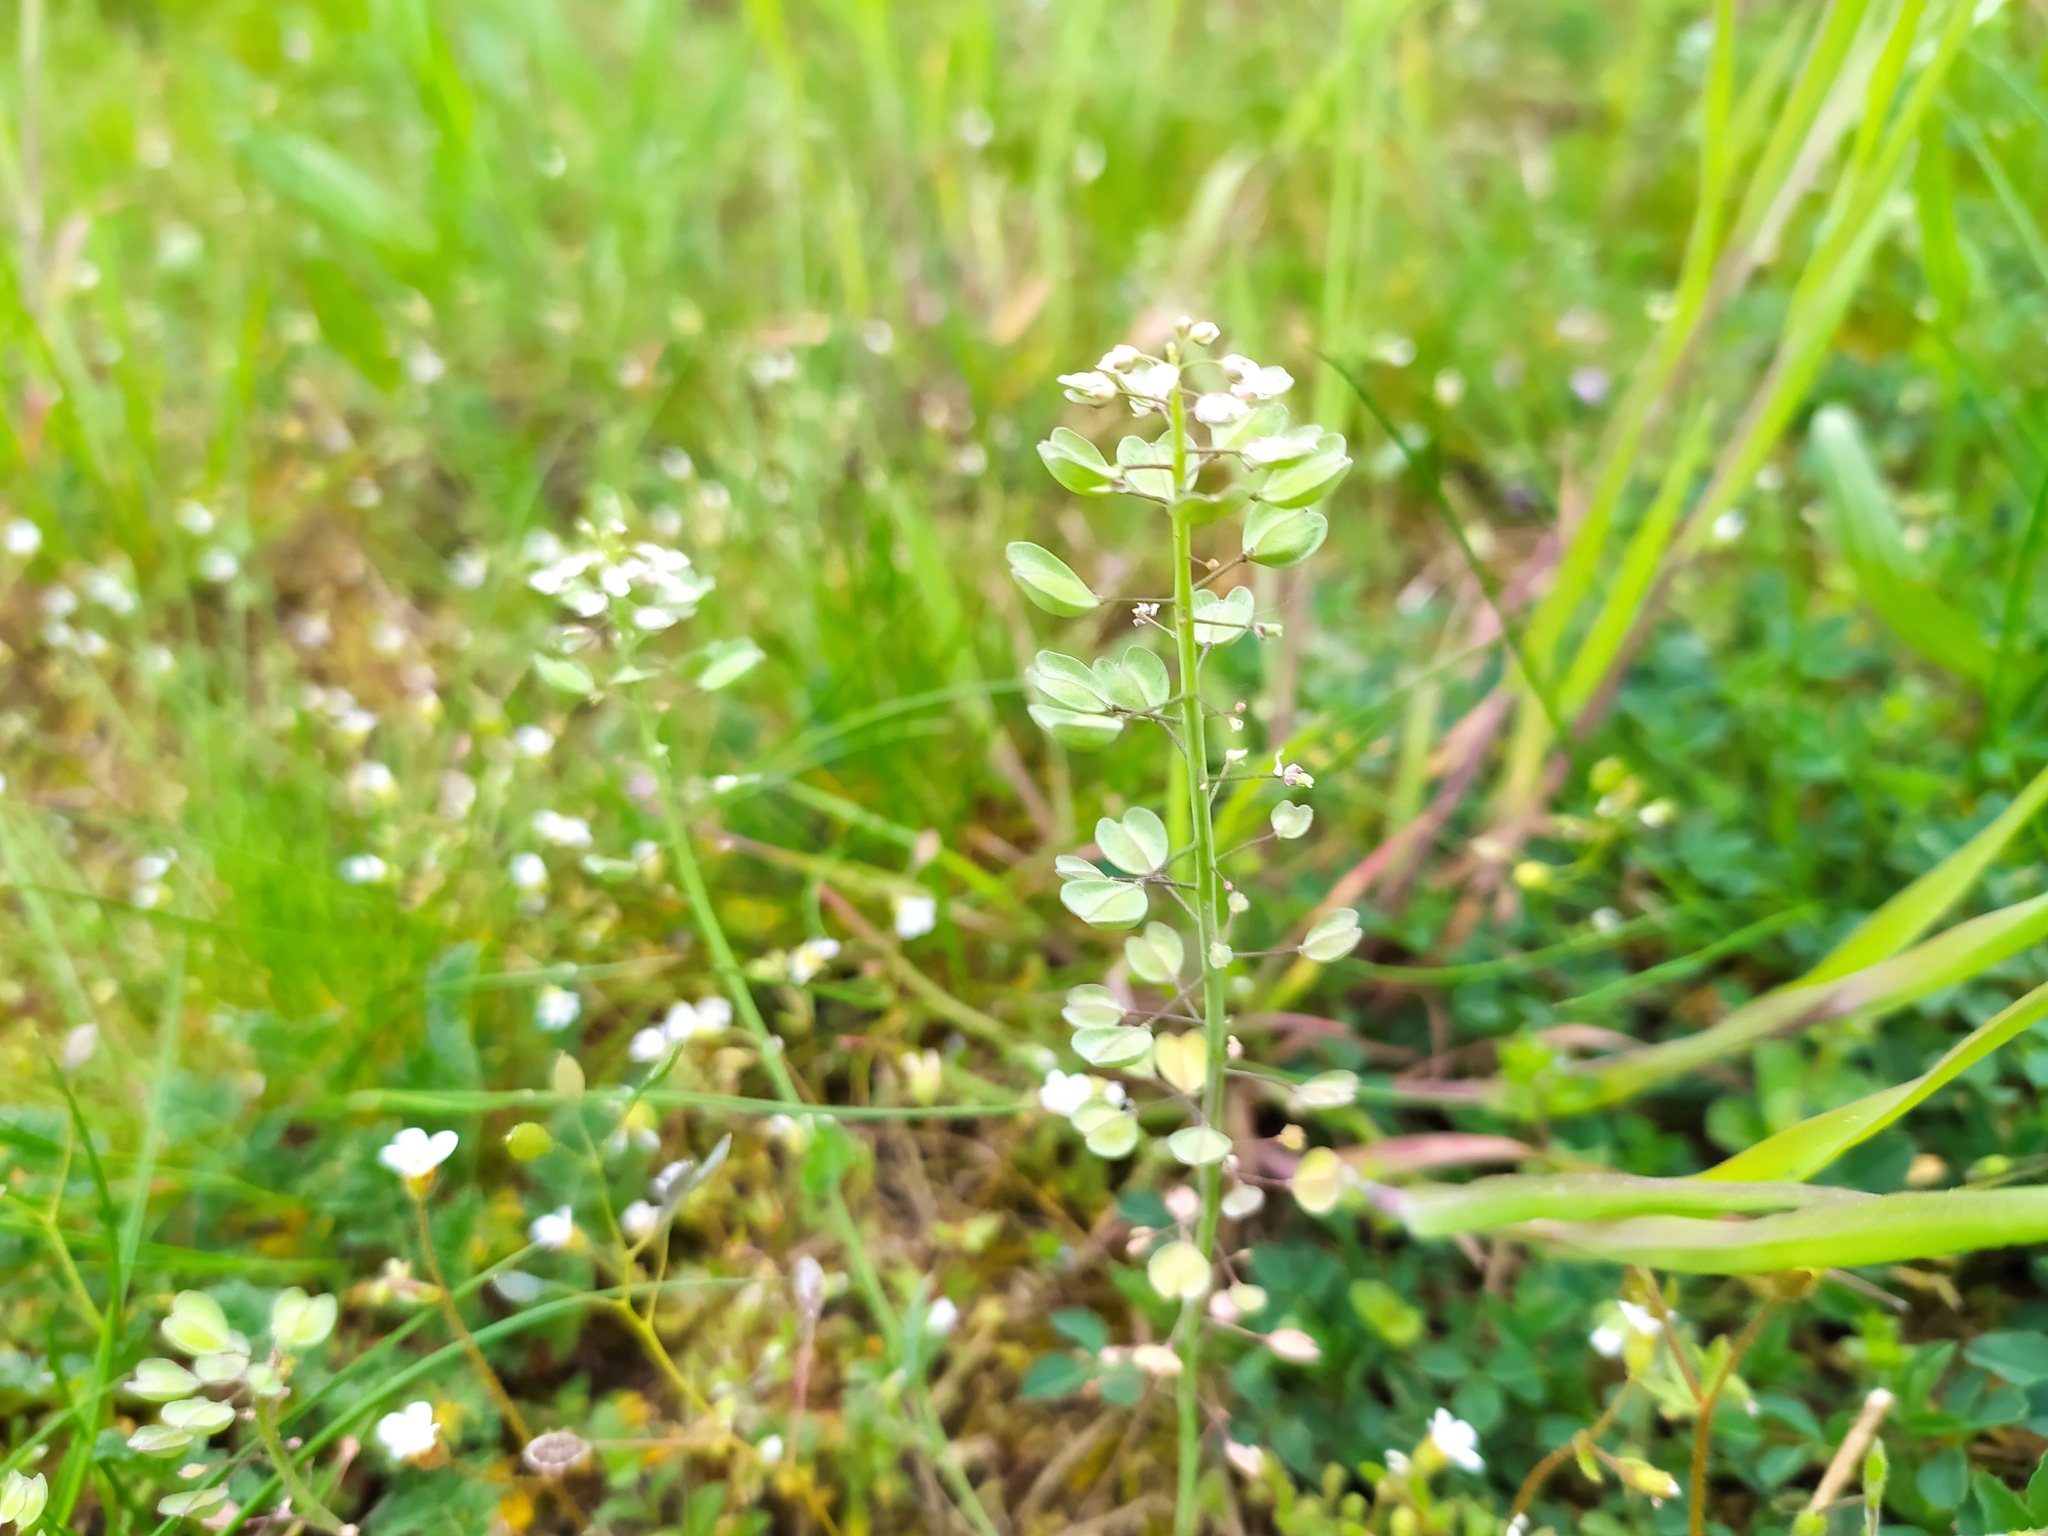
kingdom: Plantae
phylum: Tracheophyta
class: Magnoliopsida
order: Brassicales
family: Brassicaceae
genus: Noccaea
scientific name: Noccaea perfoliata
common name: Perfoliate pennycress
